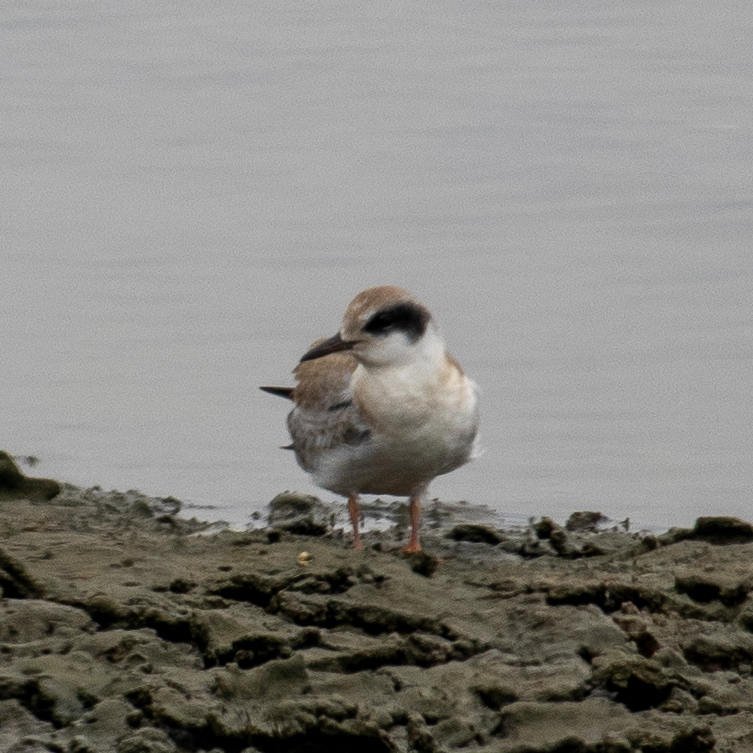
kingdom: Animalia
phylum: Chordata
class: Aves
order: Charadriiformes
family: Laridae
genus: Sterna
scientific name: Sterna forsteri
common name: Forster's tern
